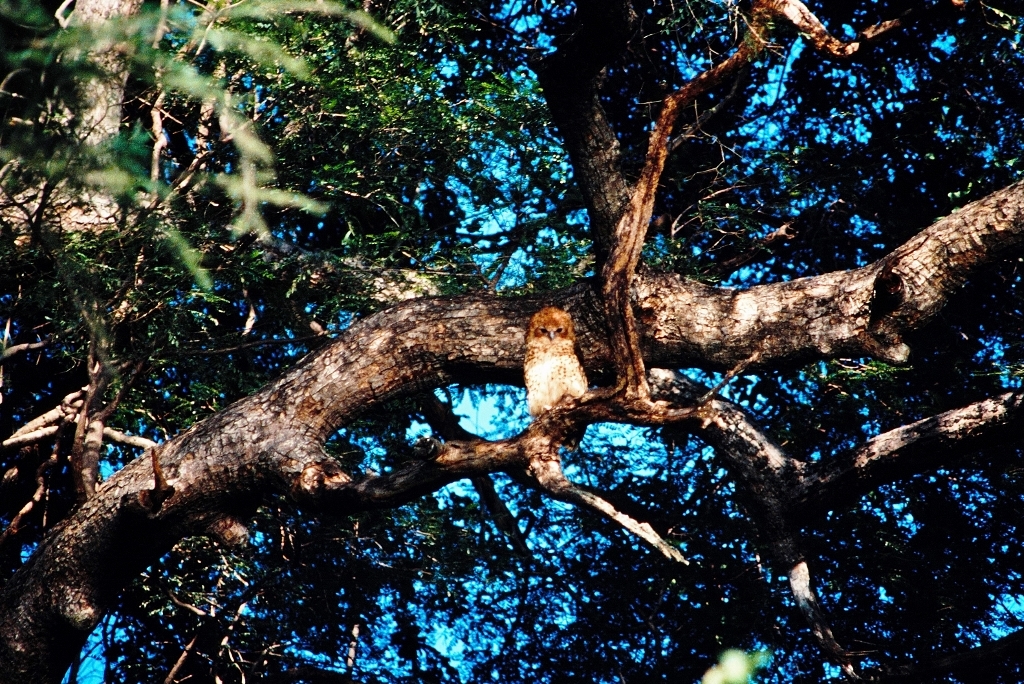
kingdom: Animalia
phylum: Chordata
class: Aves
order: Strigiformes
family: Strigidae
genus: Scotopelia
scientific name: Scotopelia peli
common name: Pel's fishing owl
